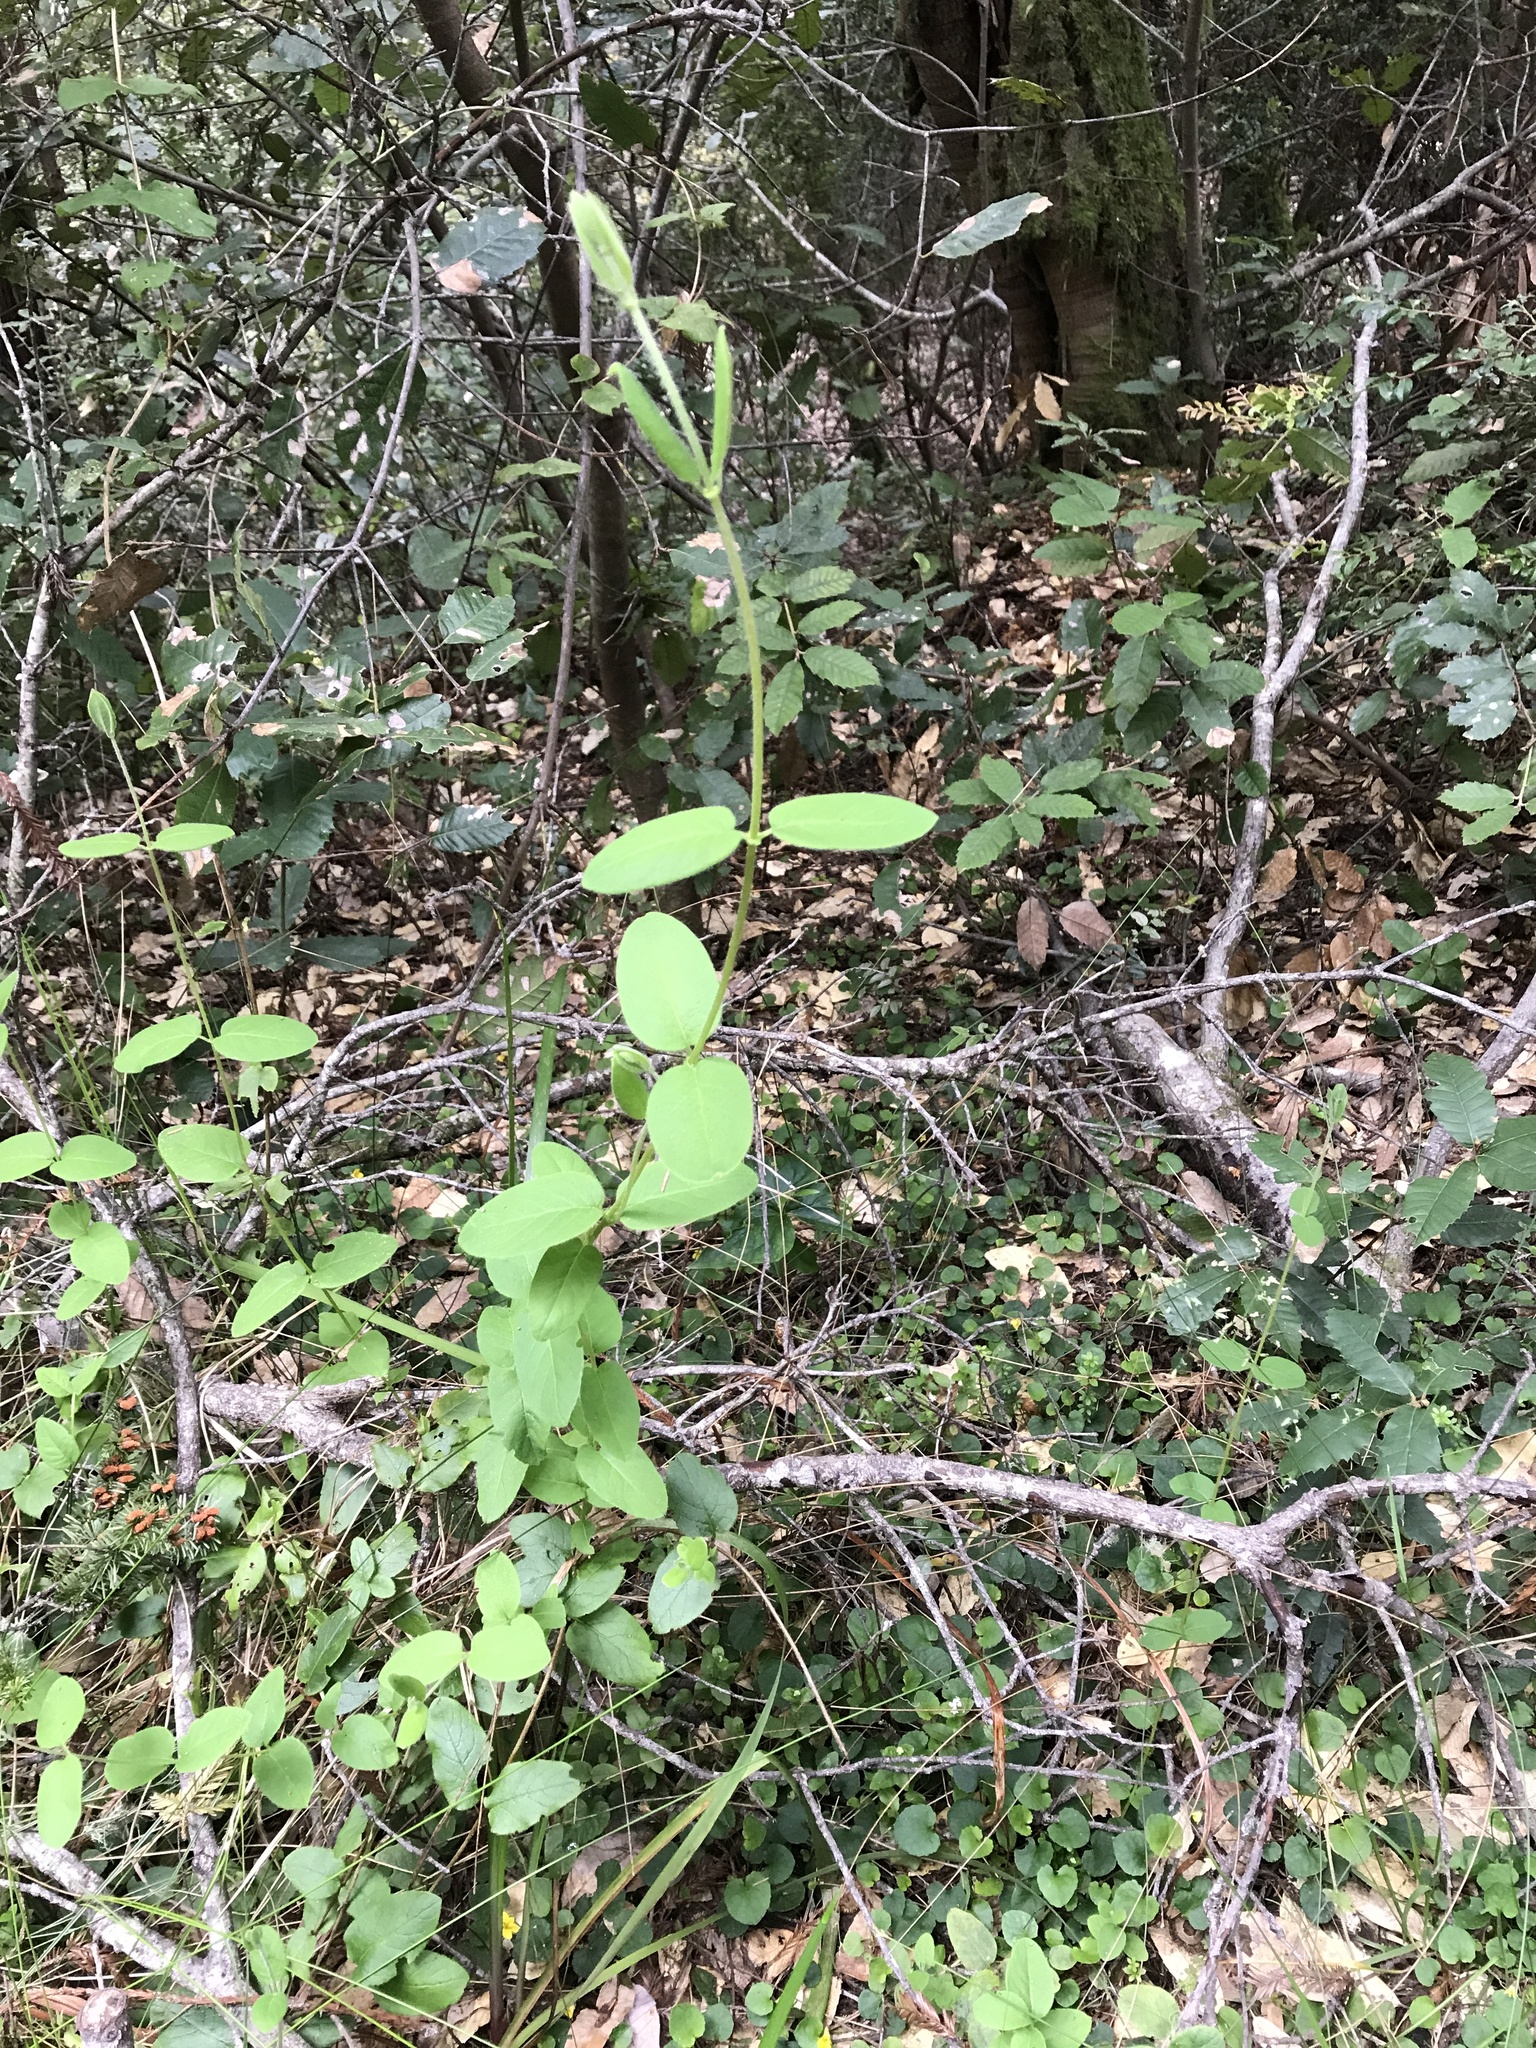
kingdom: Plantae
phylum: Tracheophyta
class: Magnoliopsida
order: Dipsacales
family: Caprifoliaceae
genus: Lonicera
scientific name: Lonicera hispidula
